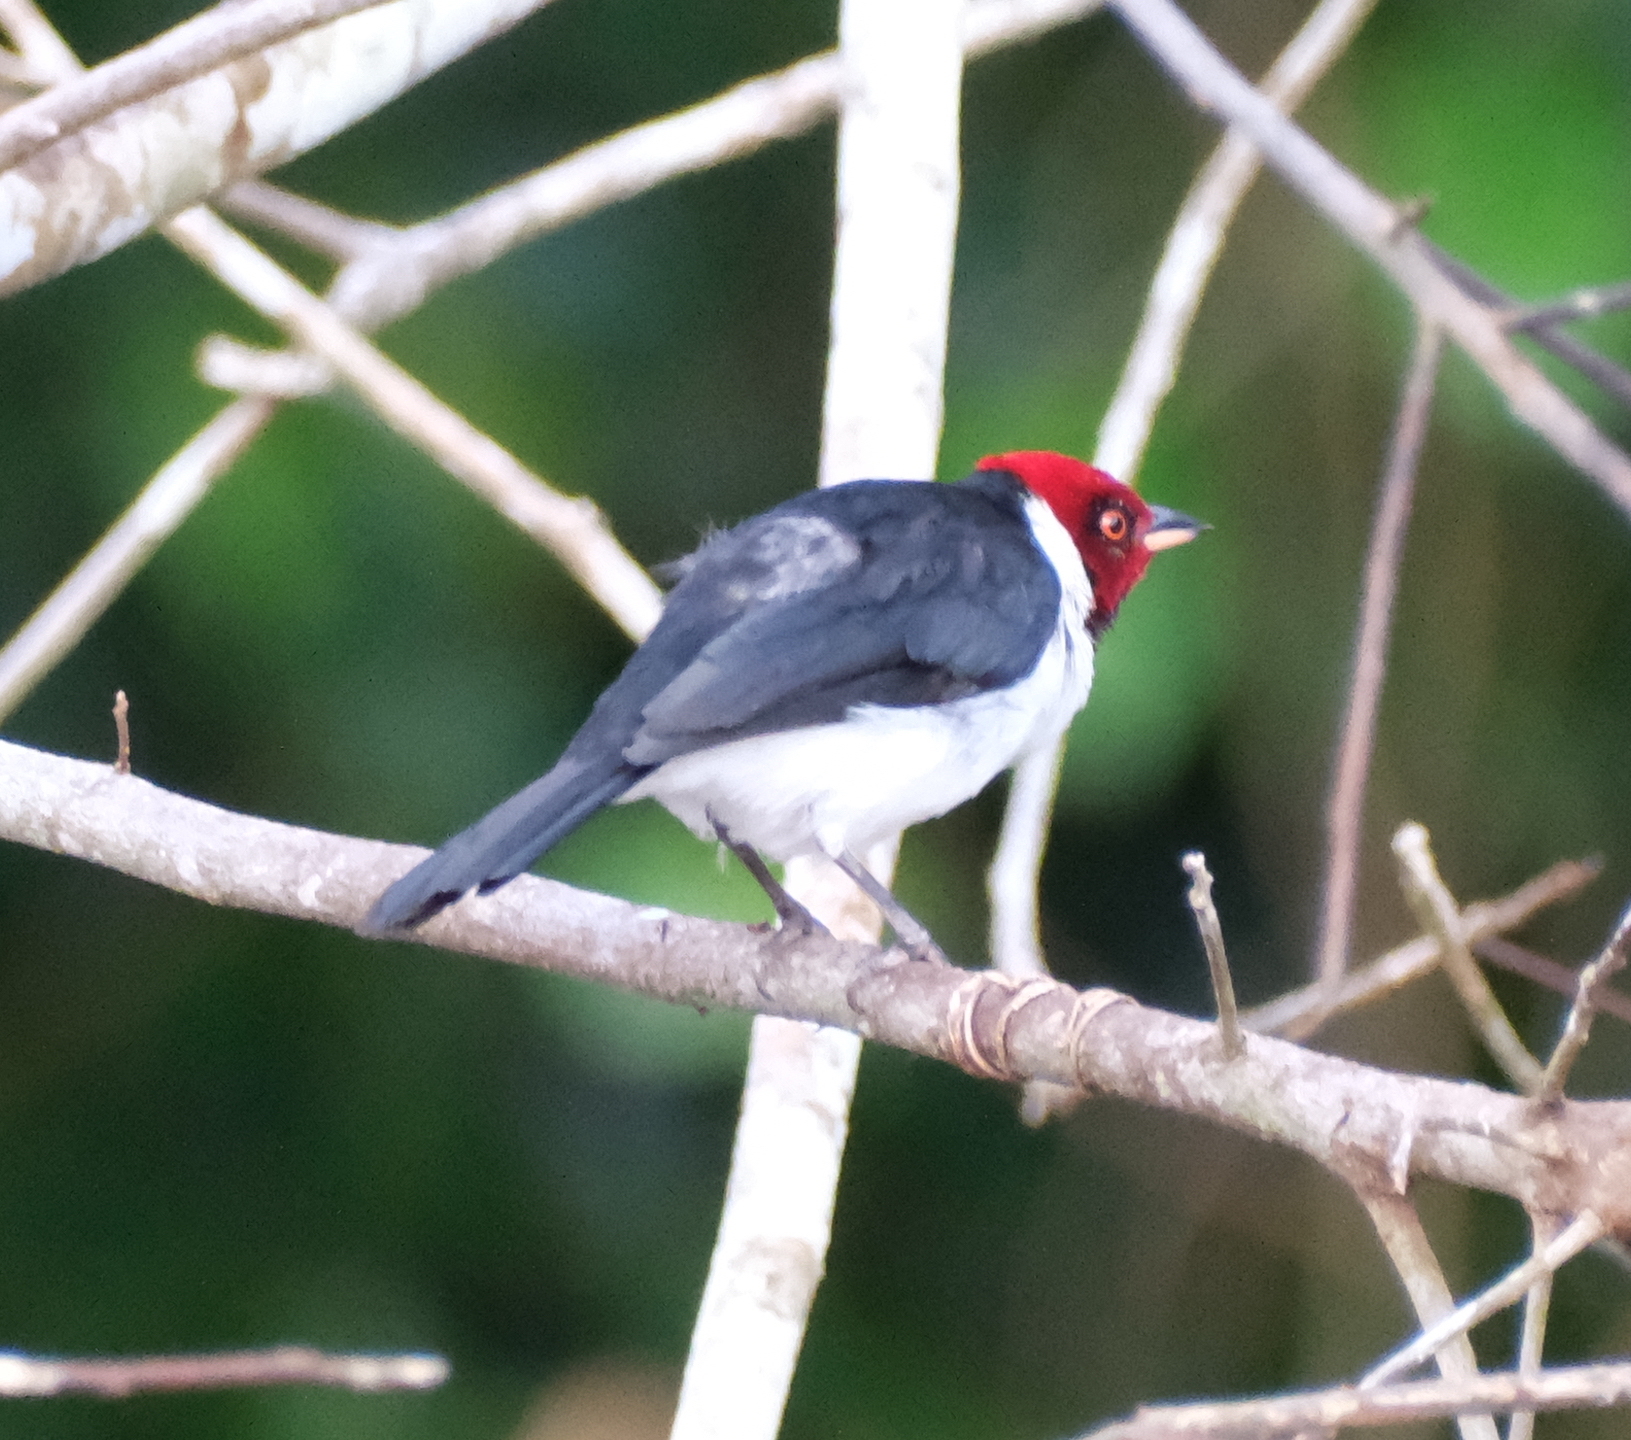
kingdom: Animalia
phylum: Chordata
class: Aves
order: Passeriformes
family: Thraupidae
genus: Paroaria
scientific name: Paroaria gularis
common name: Red-capped cardinal
